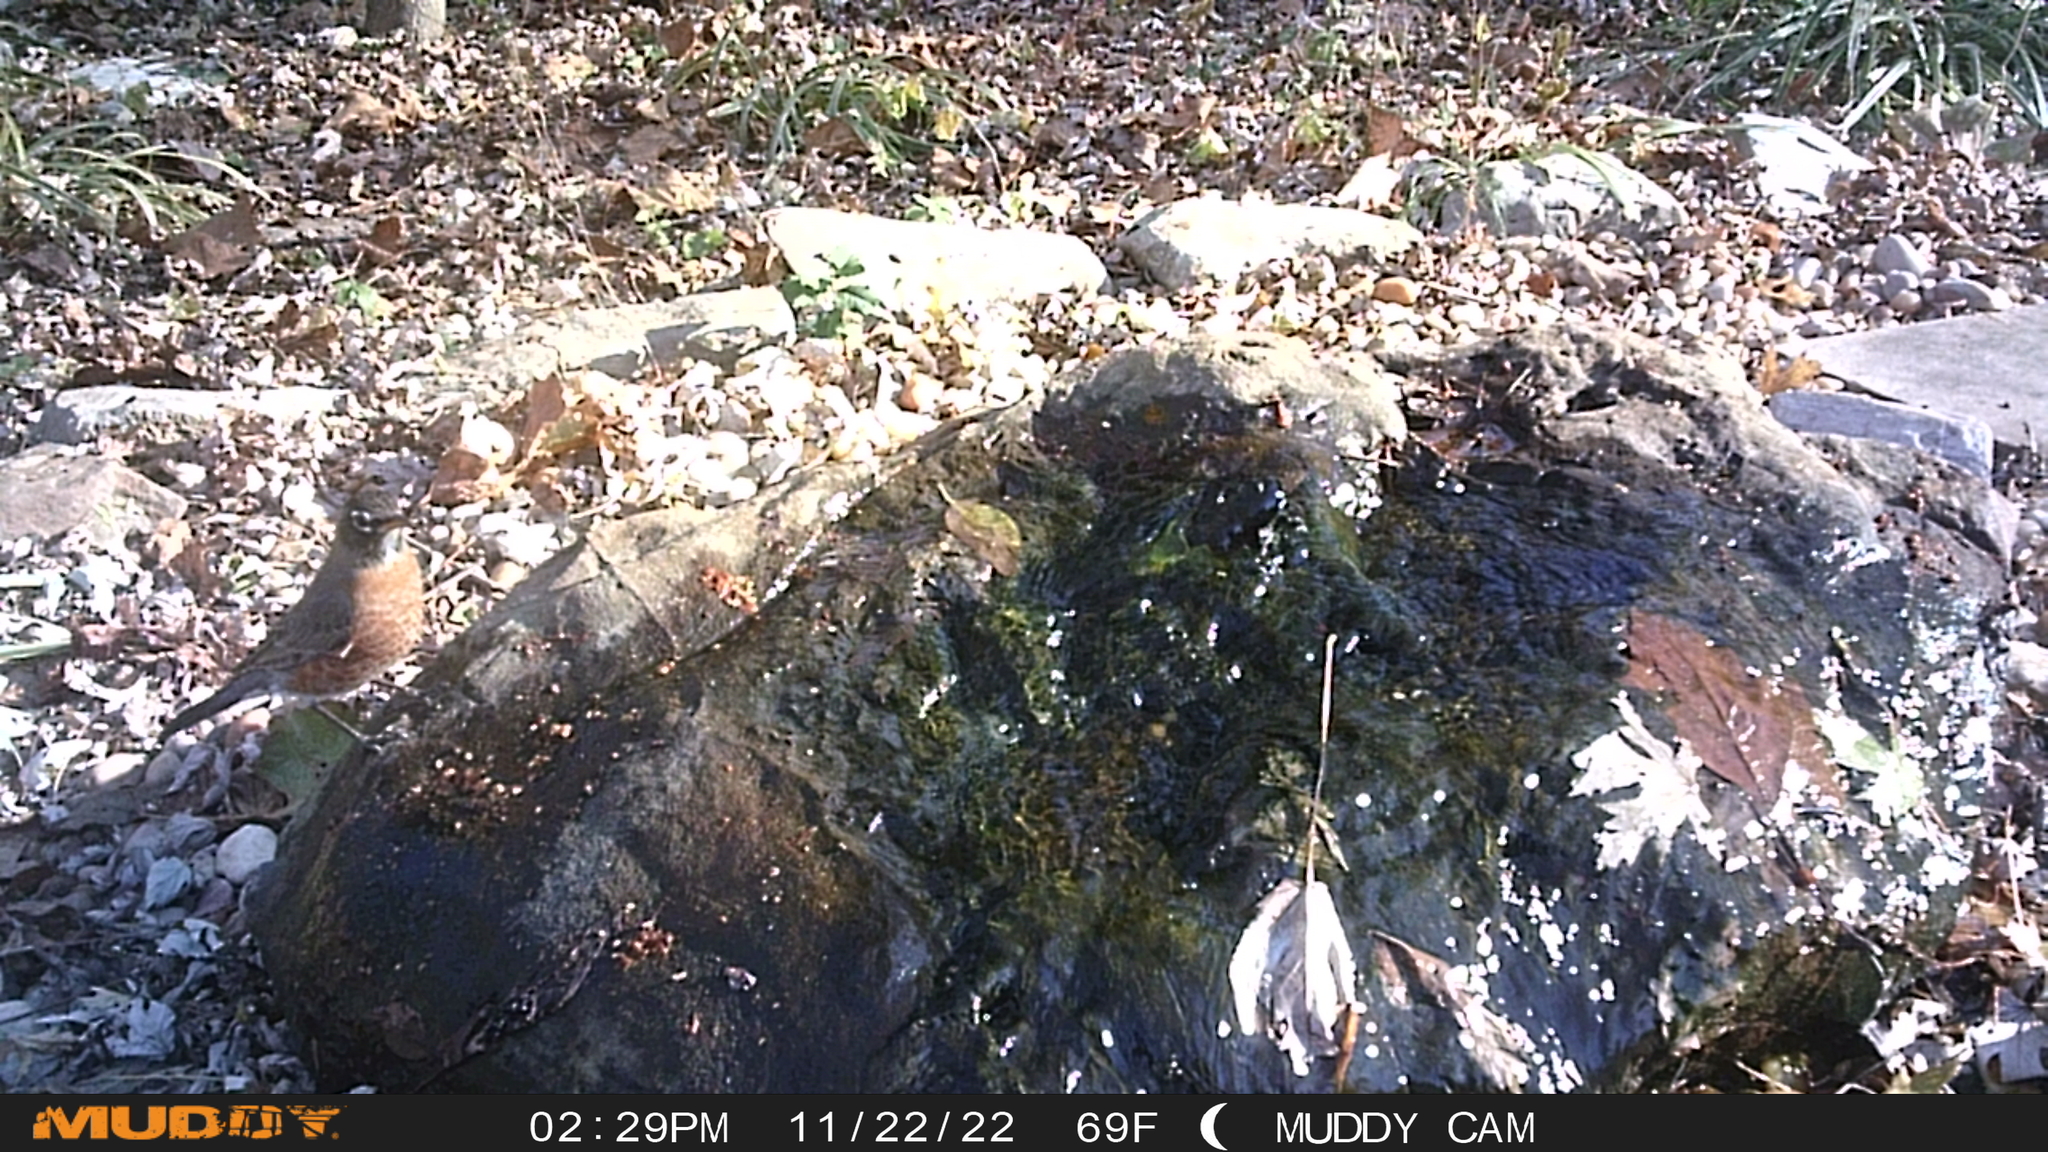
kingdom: Animalia
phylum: Chordata
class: Aves
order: Passeriformes
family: Turdidae
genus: Turdus
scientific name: Turdus migratorius
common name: American robin
